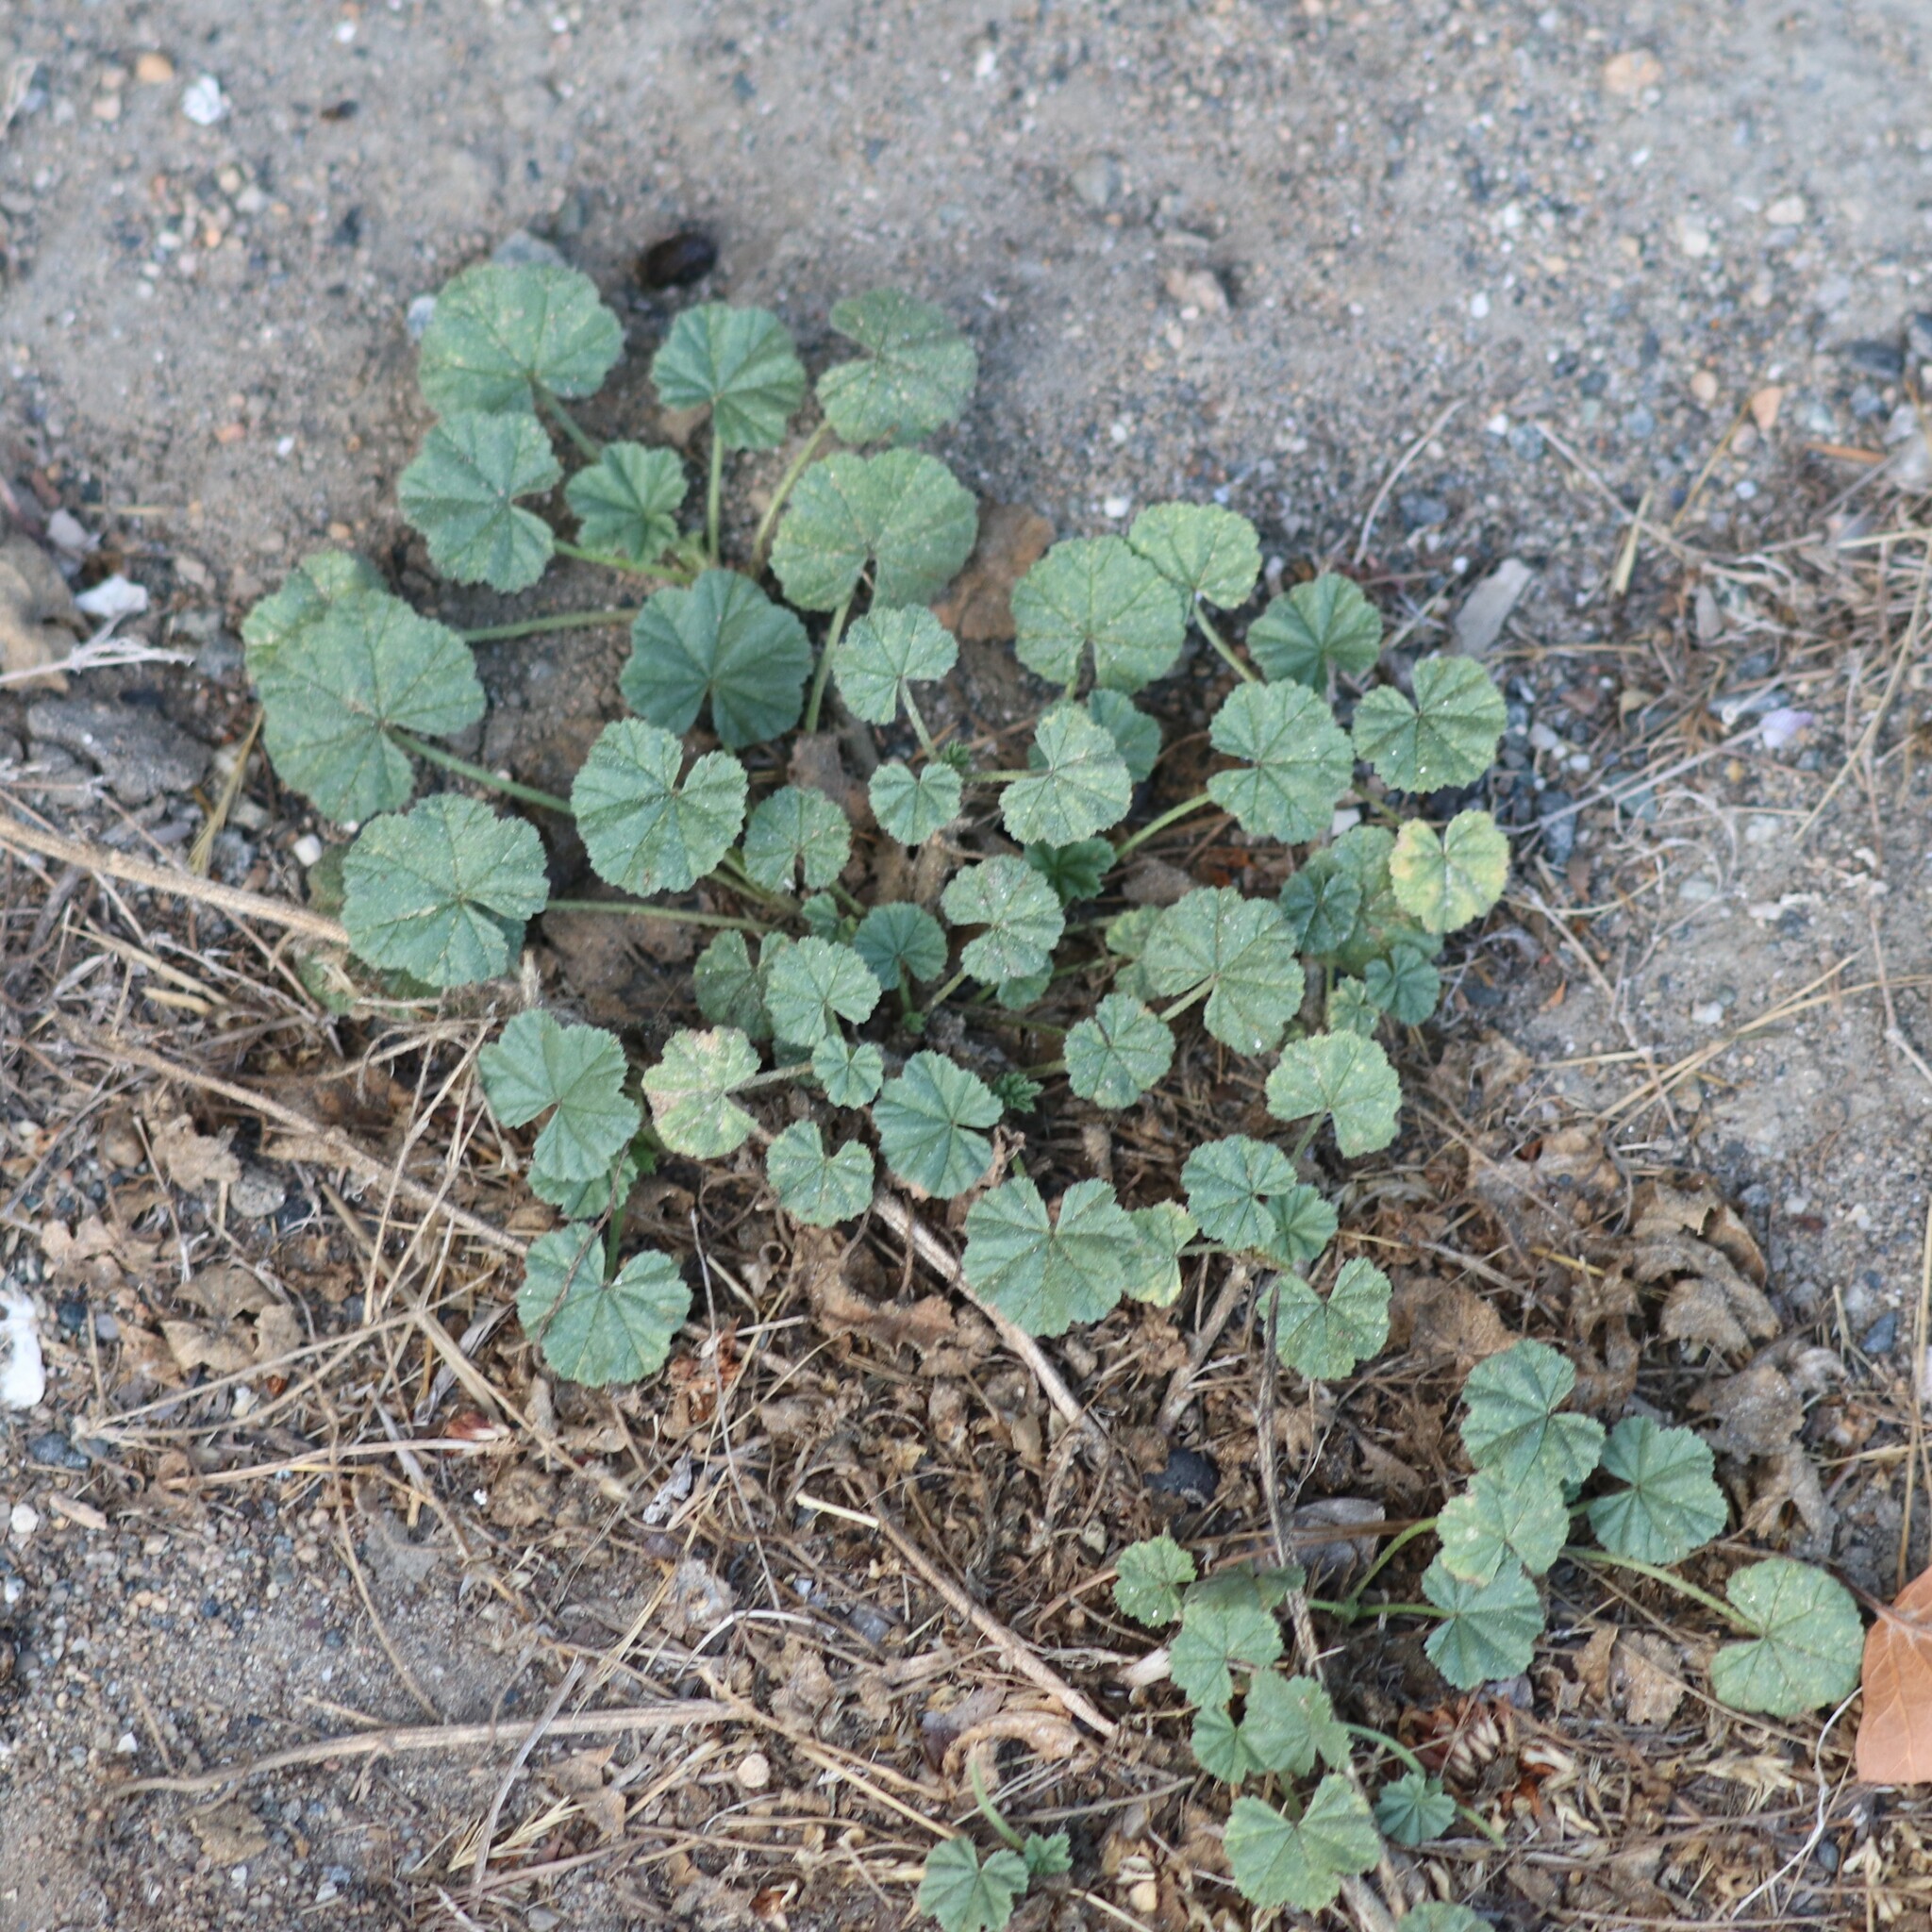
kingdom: Plantae
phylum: Tracheophyta
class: Magnoliopsida
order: Malvales
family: Malvaceae
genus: Malva
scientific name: Malva neglecta
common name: Common mallow
